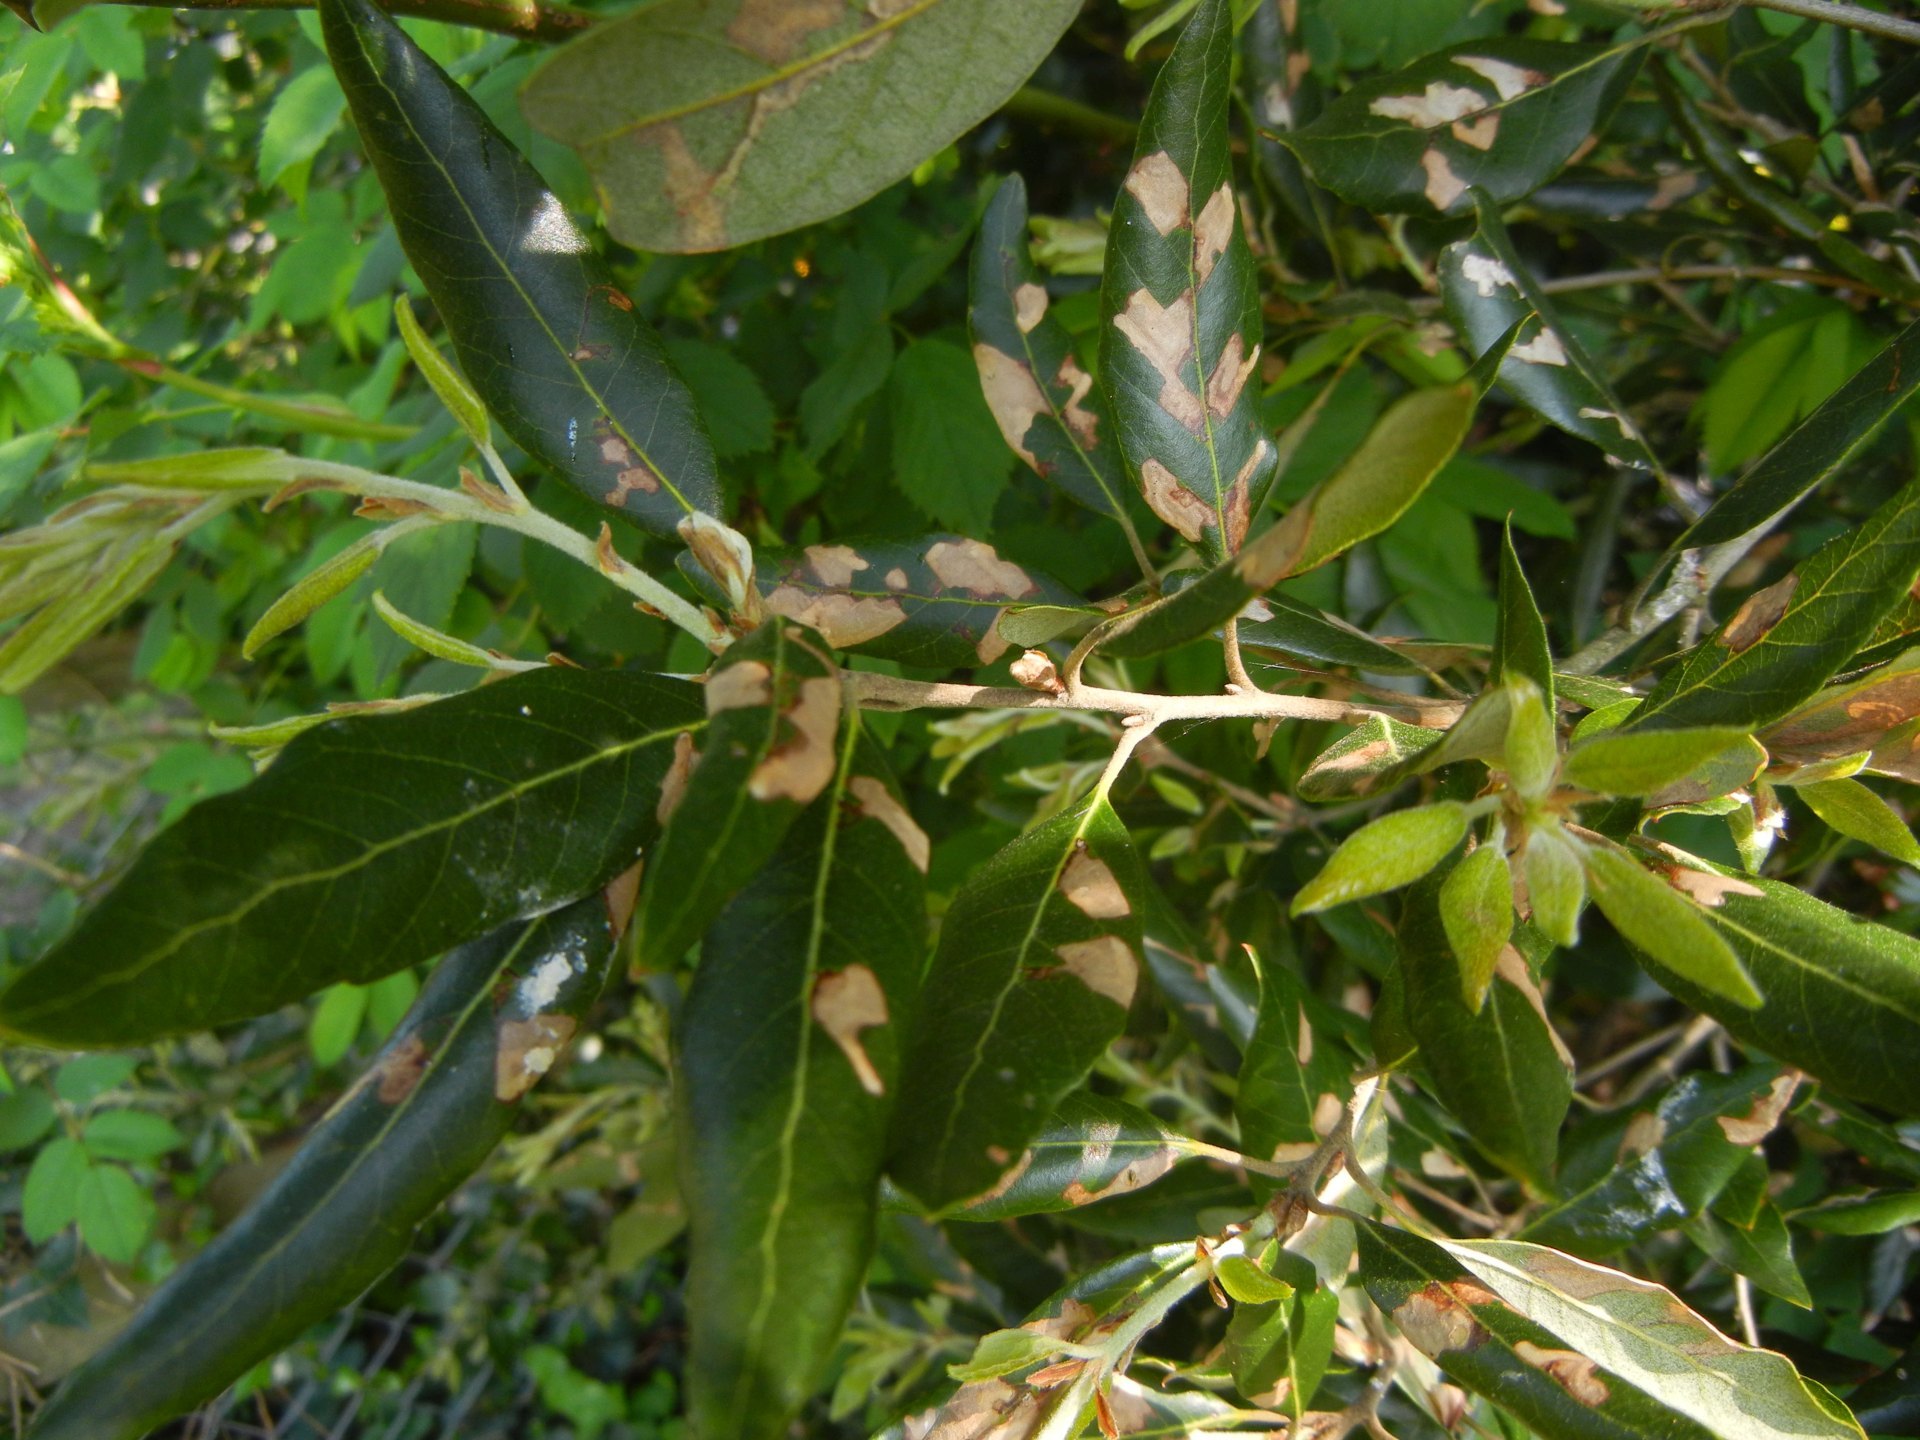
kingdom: Plantae
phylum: Tracheophyta
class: Magnoliopsida
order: Fagales
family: Fagaceae
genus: Quercus
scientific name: Quercus ilex
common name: Evergreen oak
